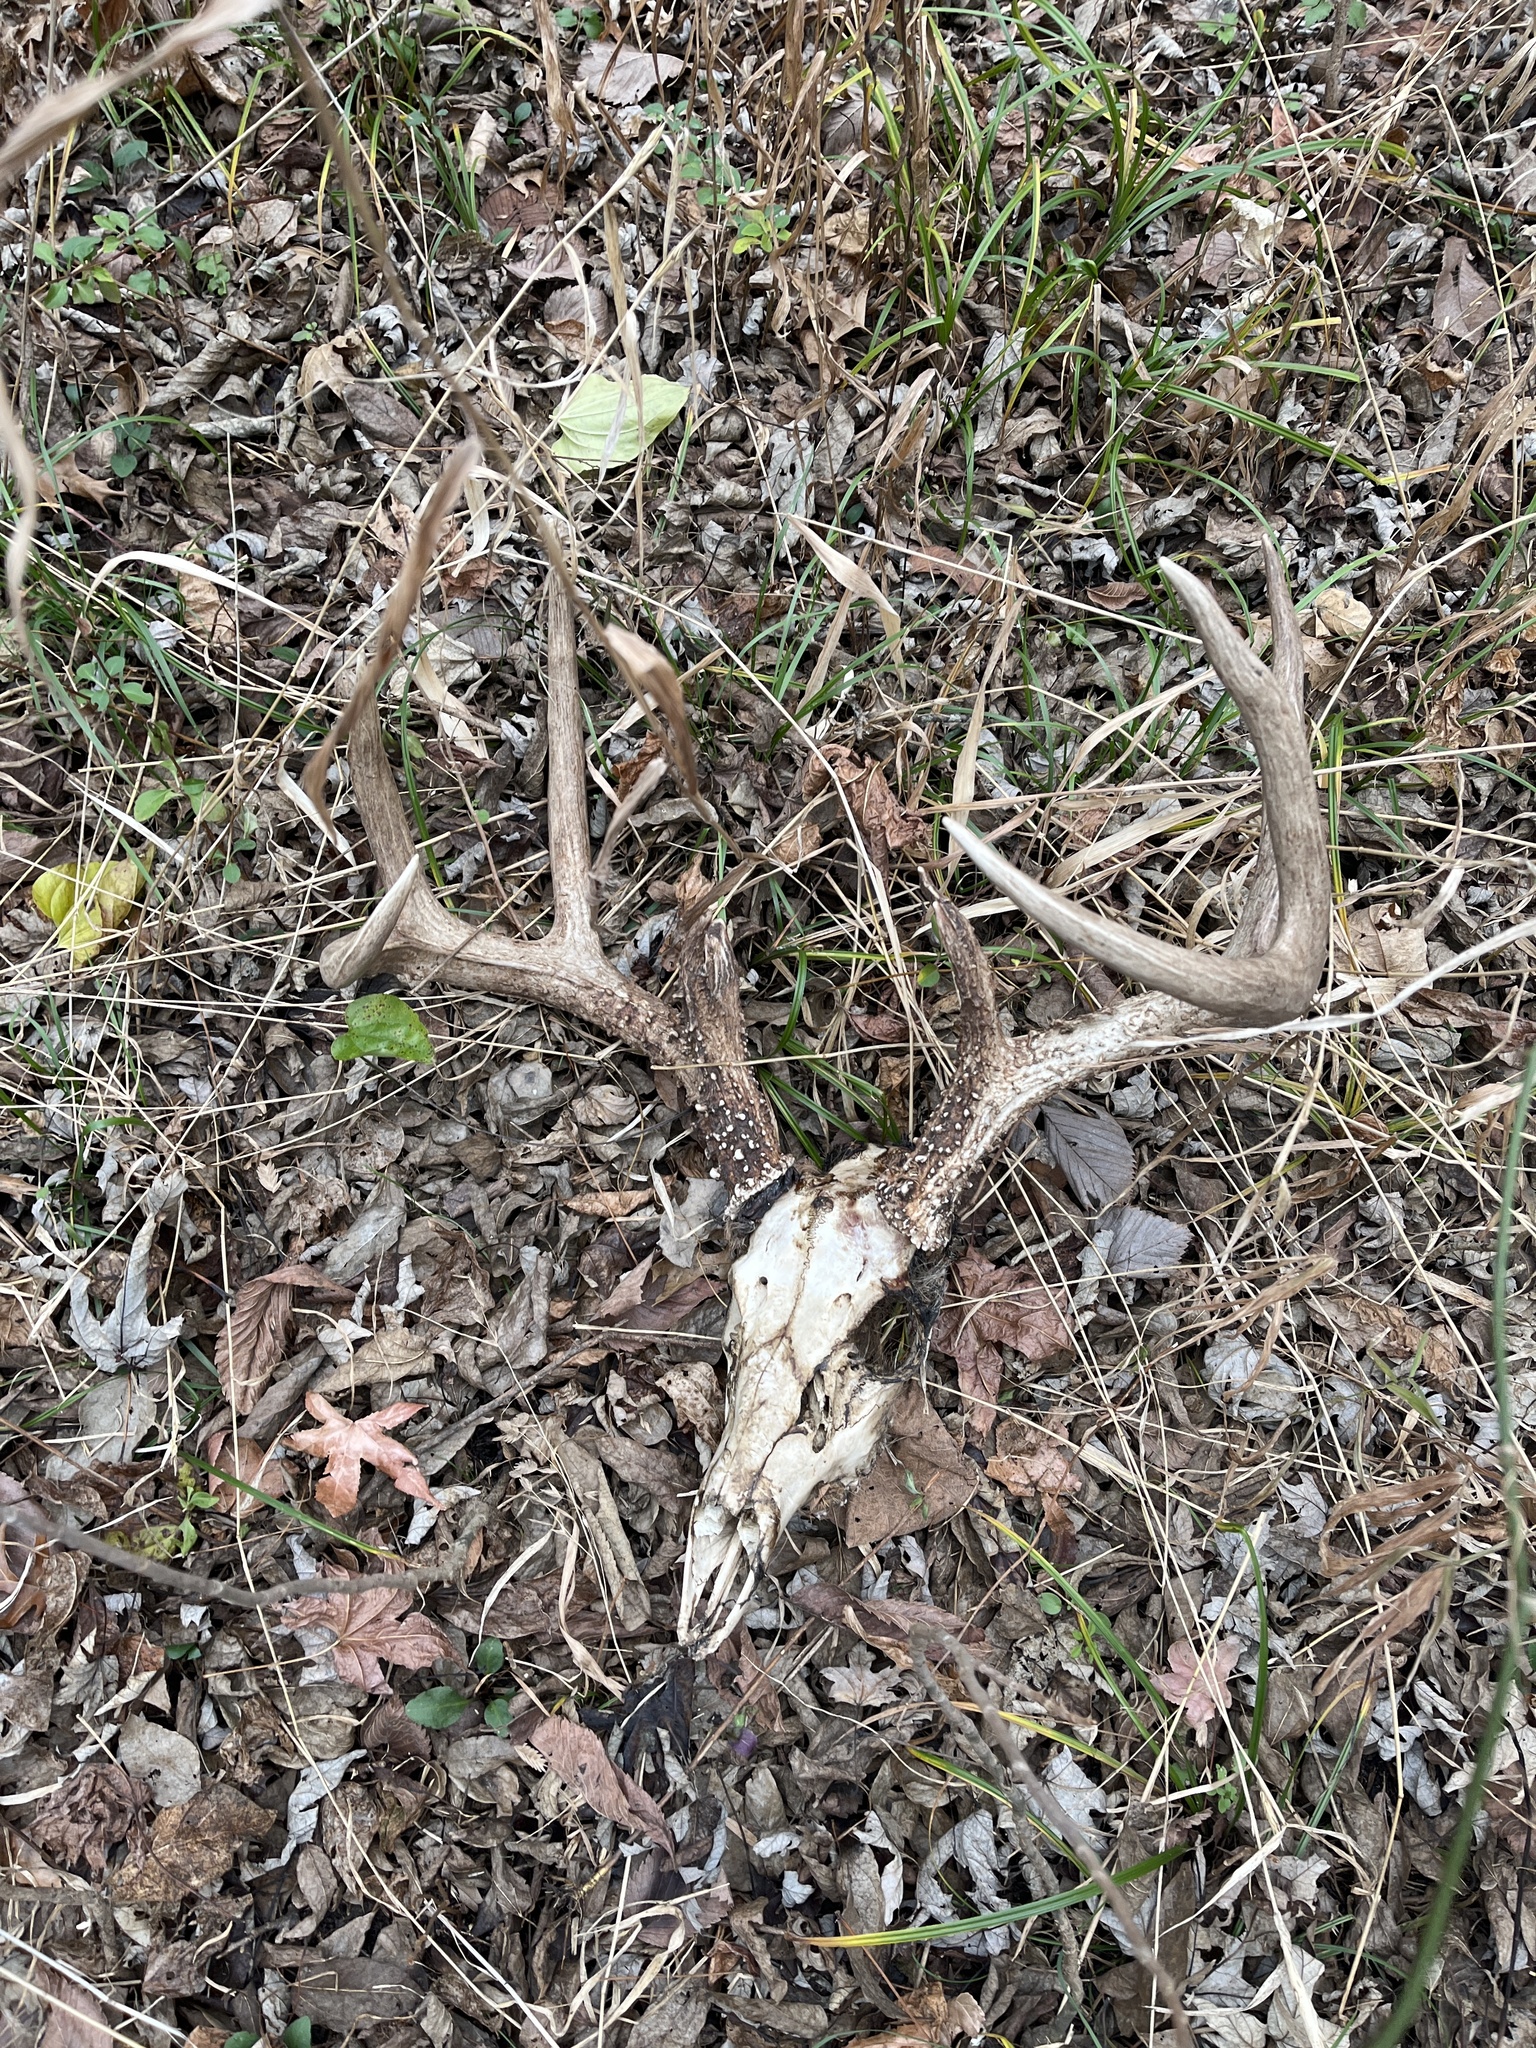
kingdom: Animalia
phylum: Chordata
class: Mammalia
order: Artiodactyla
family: Cervidae
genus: Odocoileus
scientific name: Odocoileus virginianus
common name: White-tailed deer
